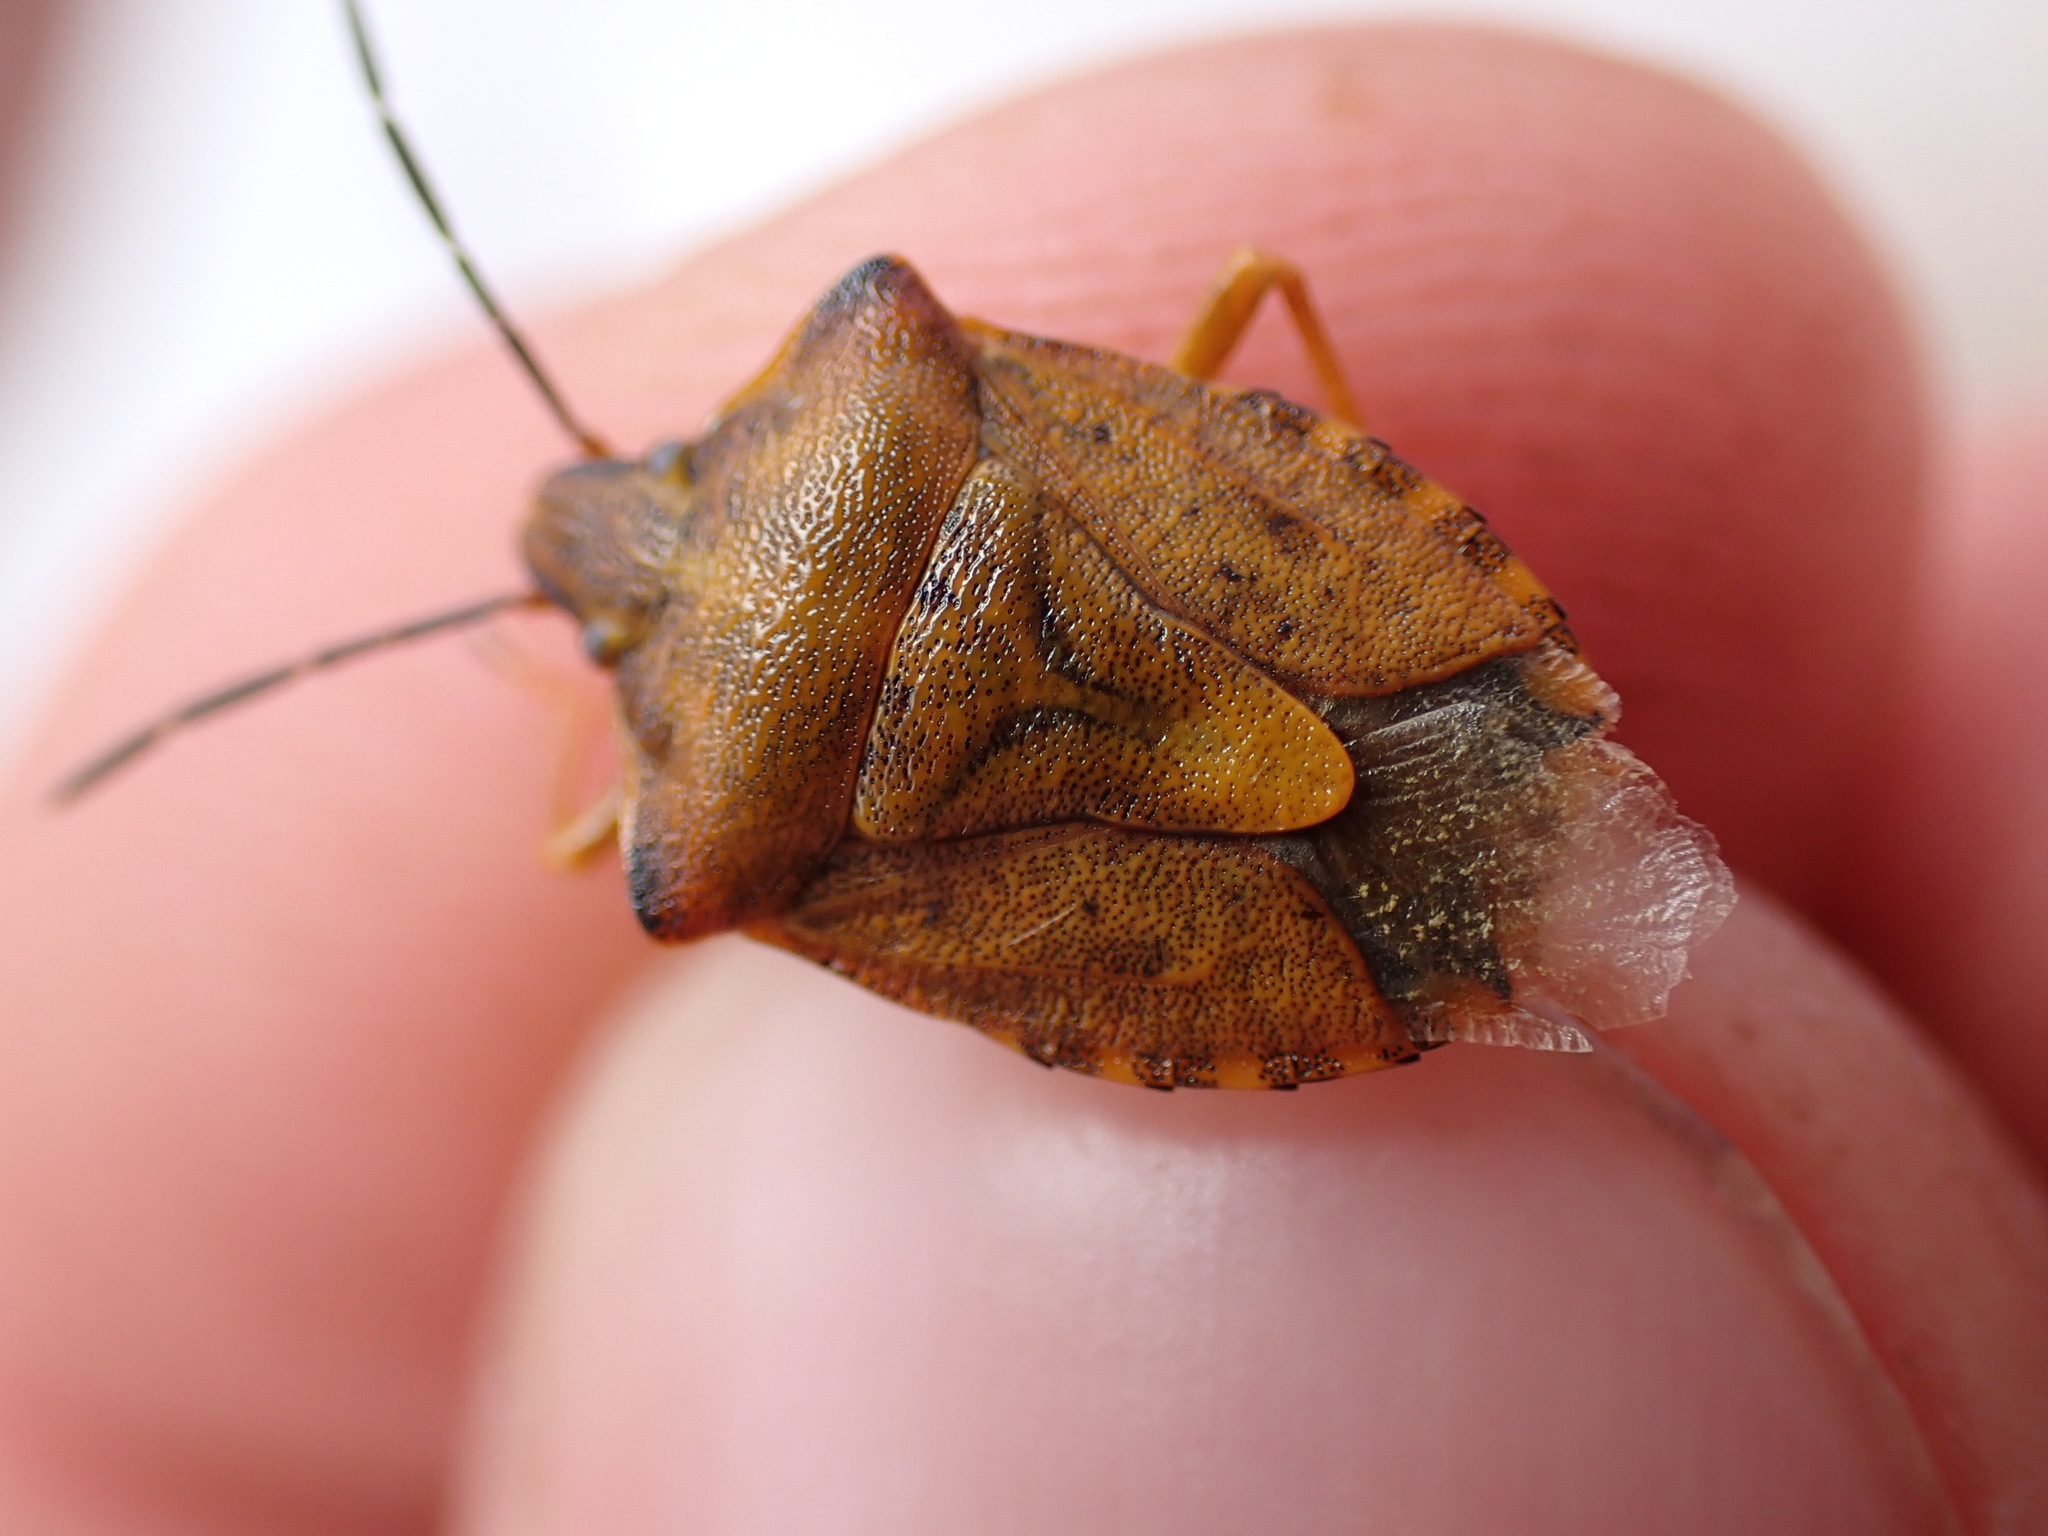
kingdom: Animalia
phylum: Arthropoda
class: Insecta
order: Hemiptera
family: Pentatomidae
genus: Carpocoris
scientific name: Carpocoris purpureipennis
